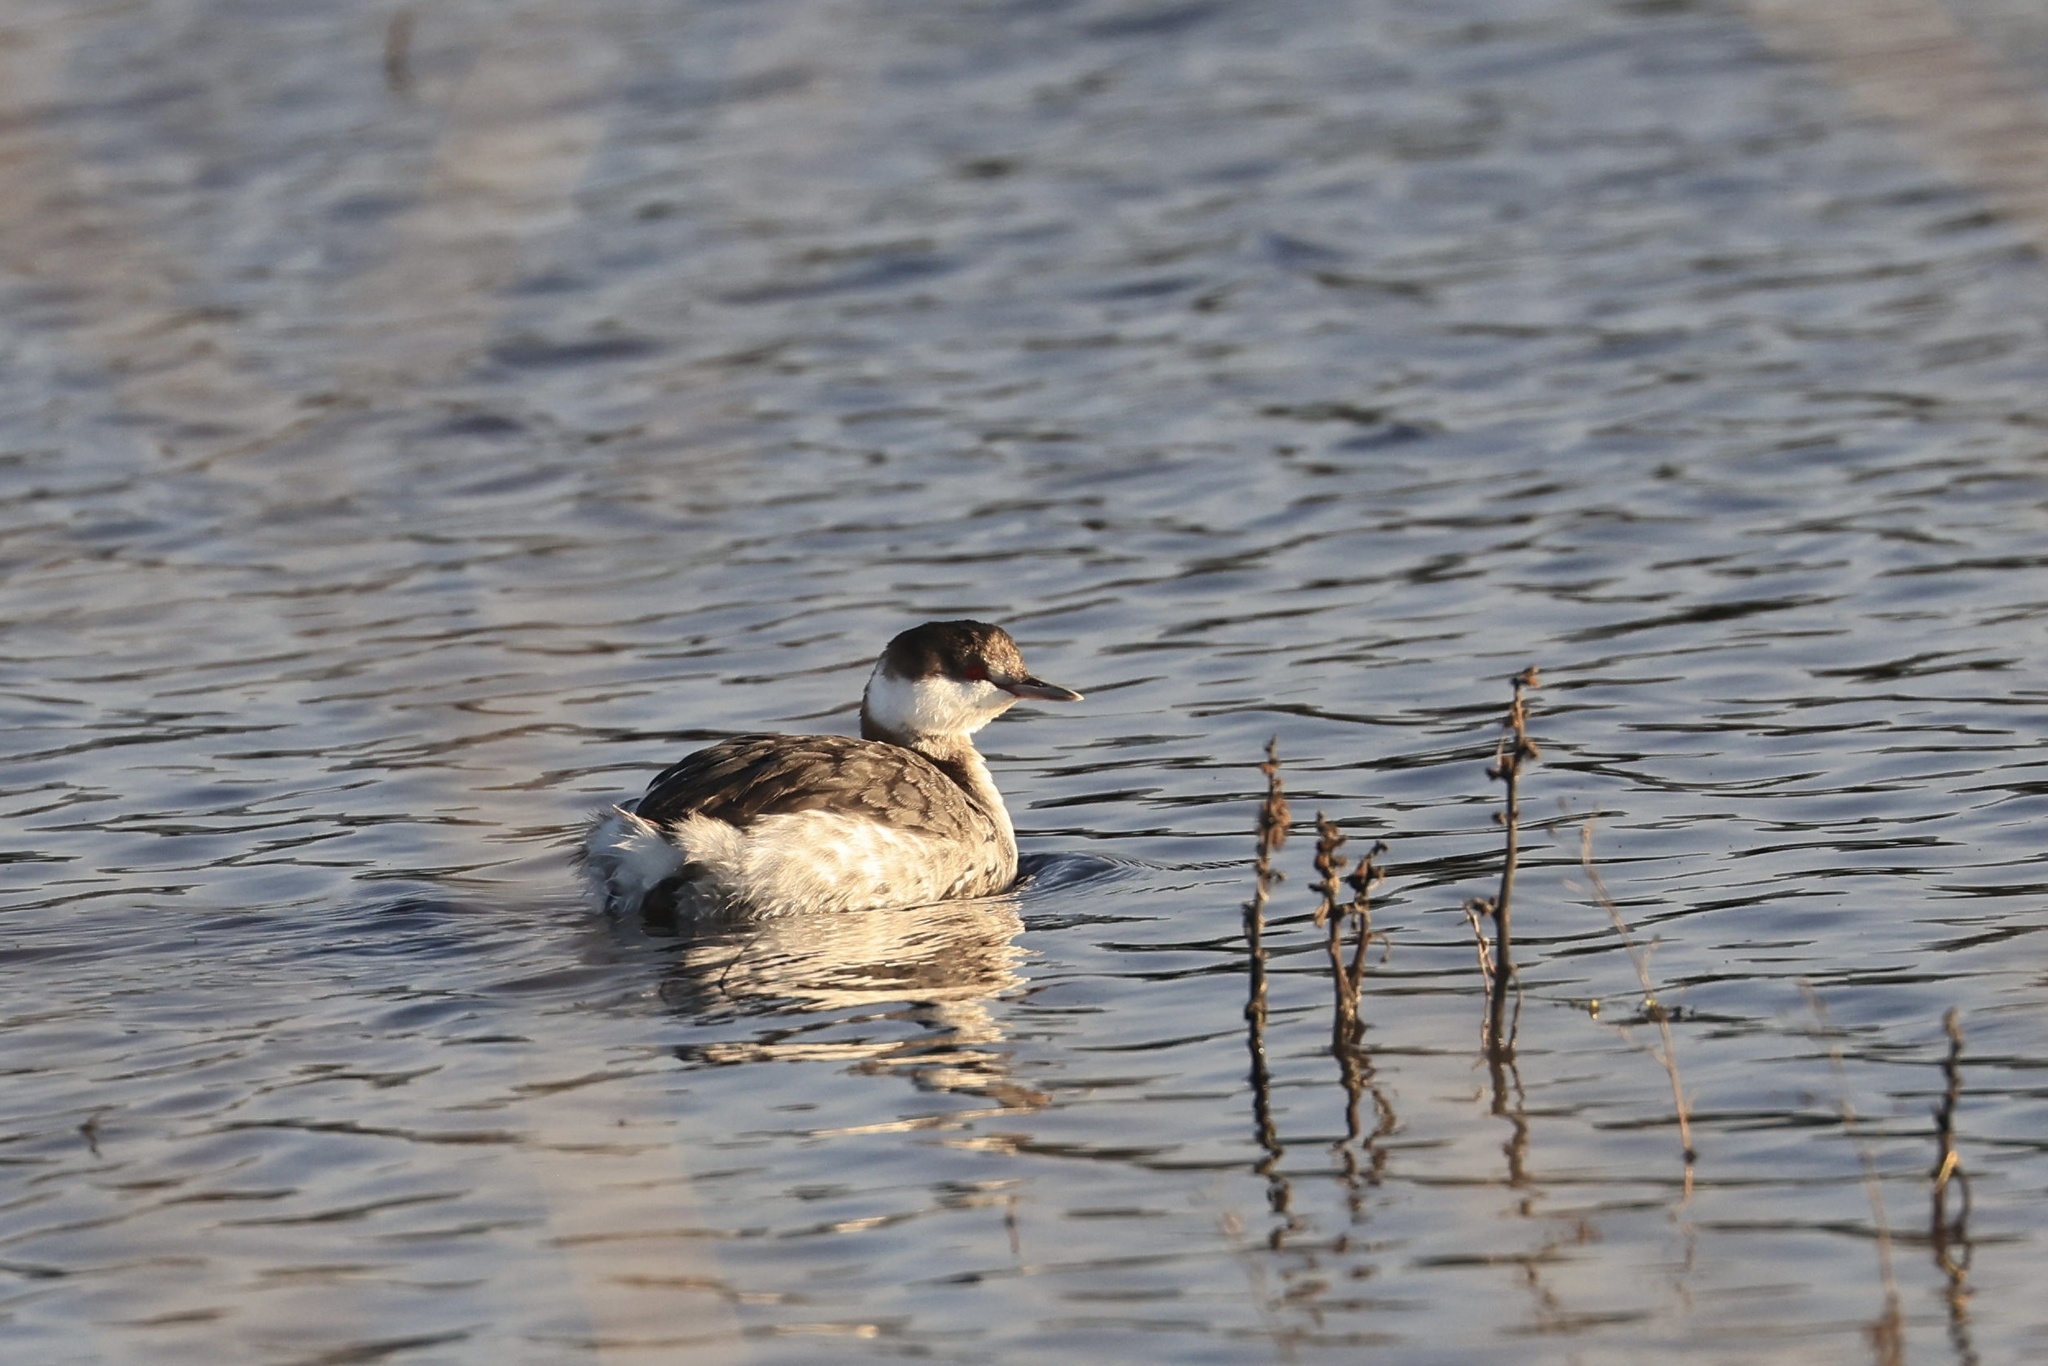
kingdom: Animalia
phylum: Chordata
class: Aves
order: Podicipediformes
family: Podicipedidae
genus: Podiceps
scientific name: Podiceps auritus
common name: Horned grebe
